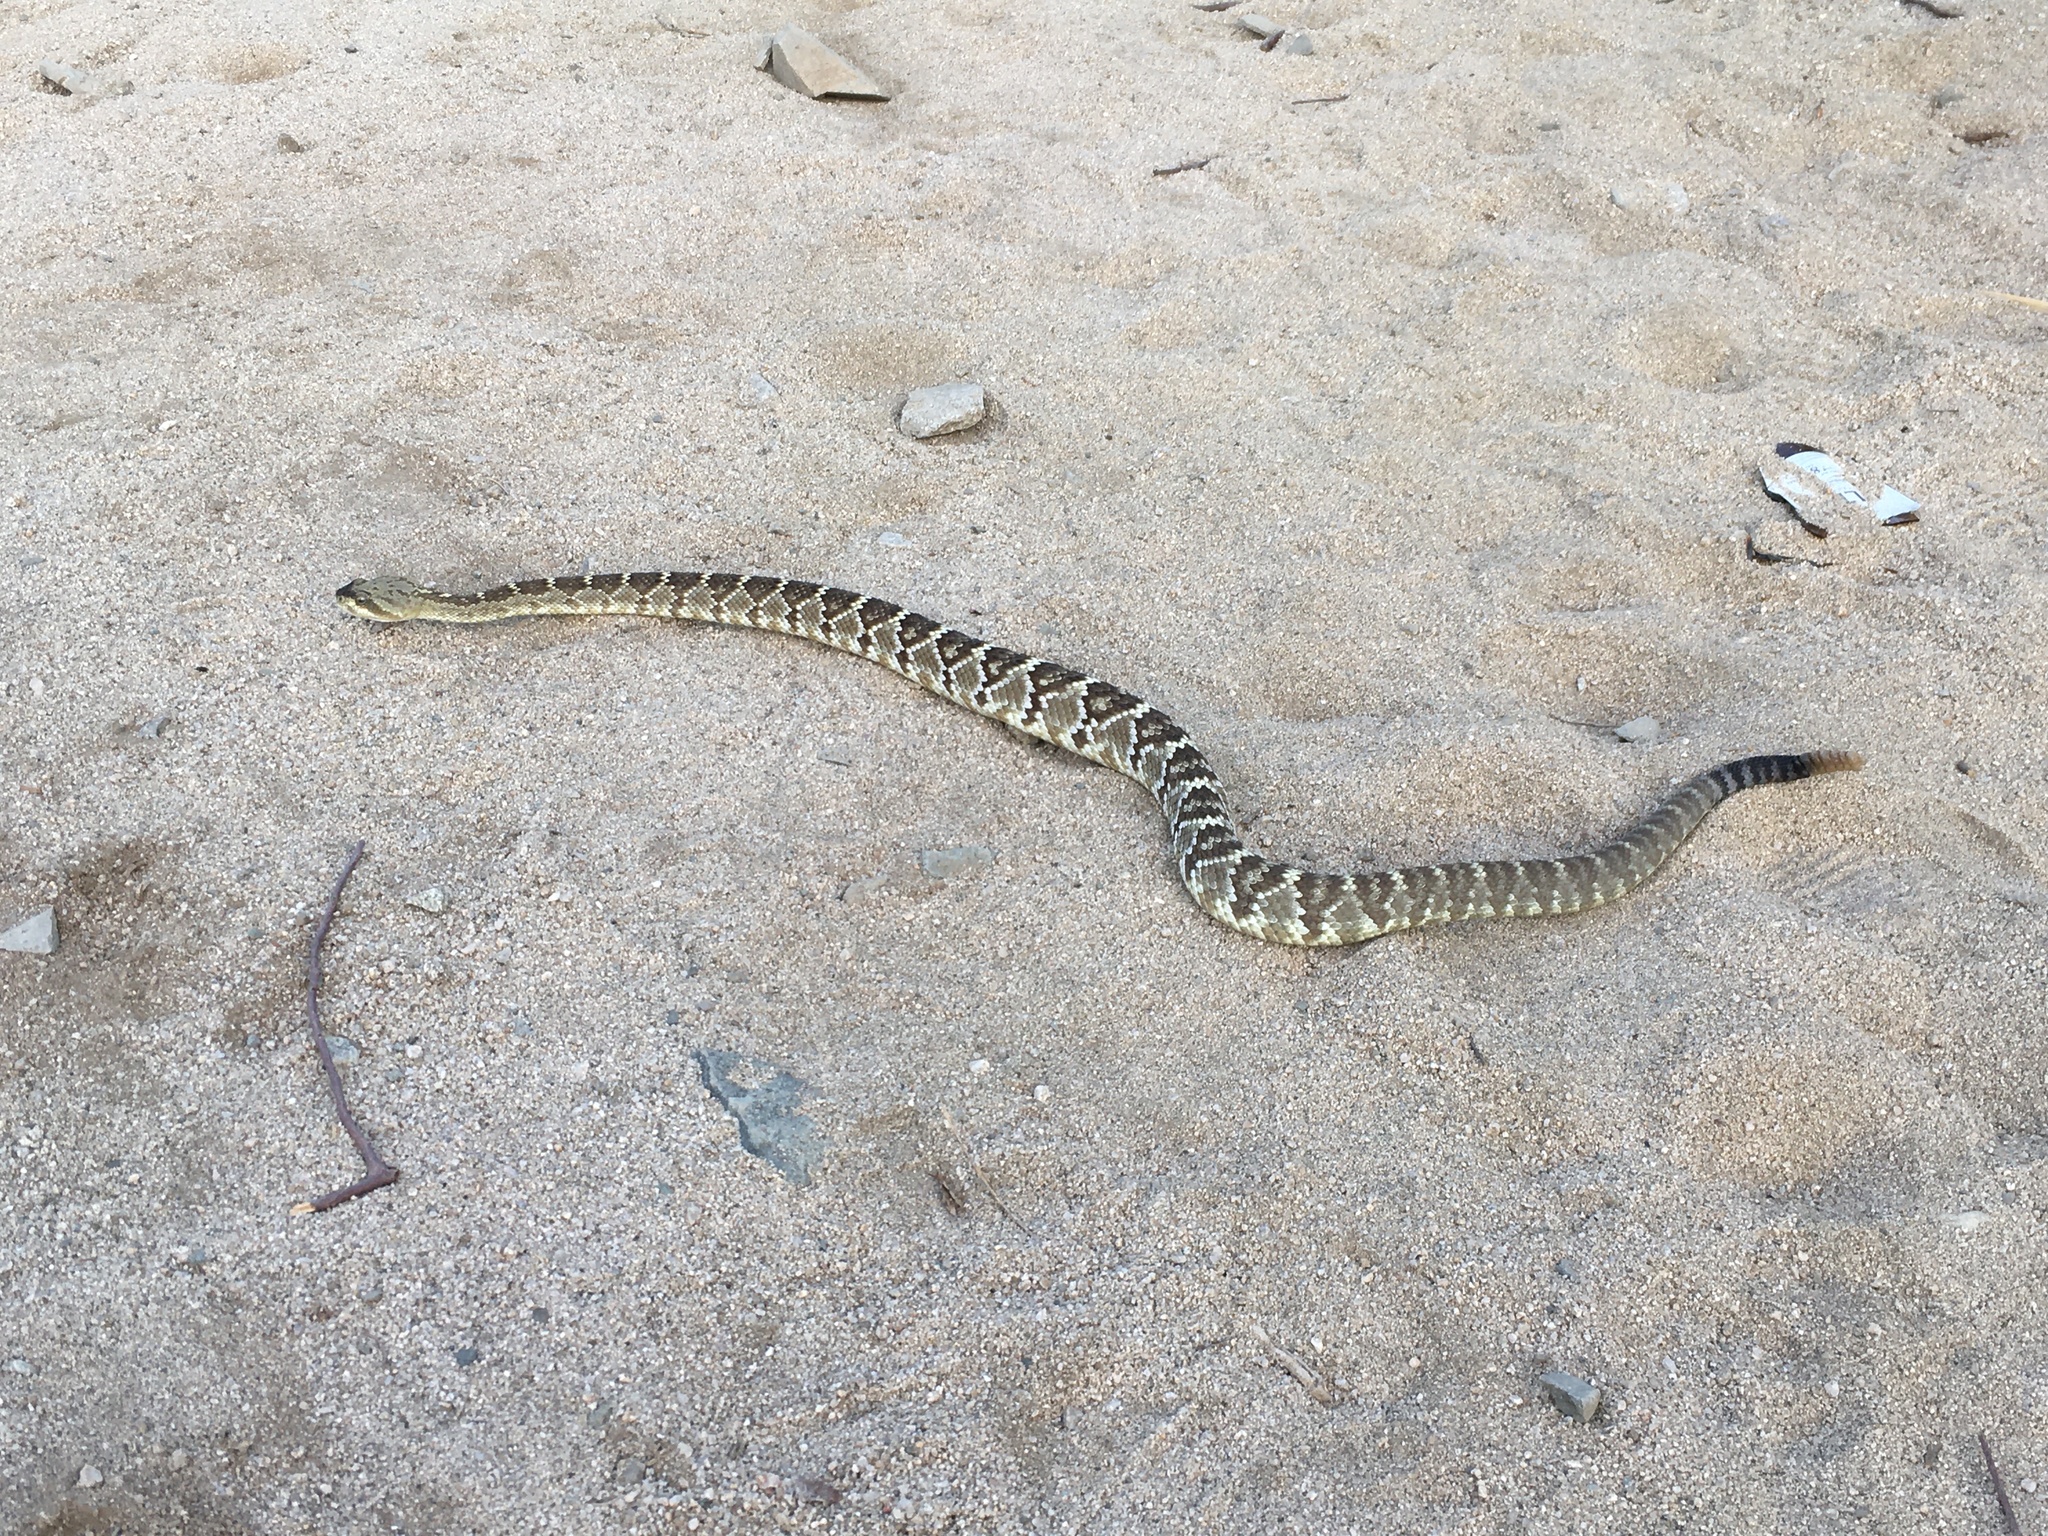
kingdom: Animalia
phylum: Chordata
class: Squamata
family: Viperidae
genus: Crotalus
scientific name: Crotalus molossus
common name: Black tailed rattlesnake
